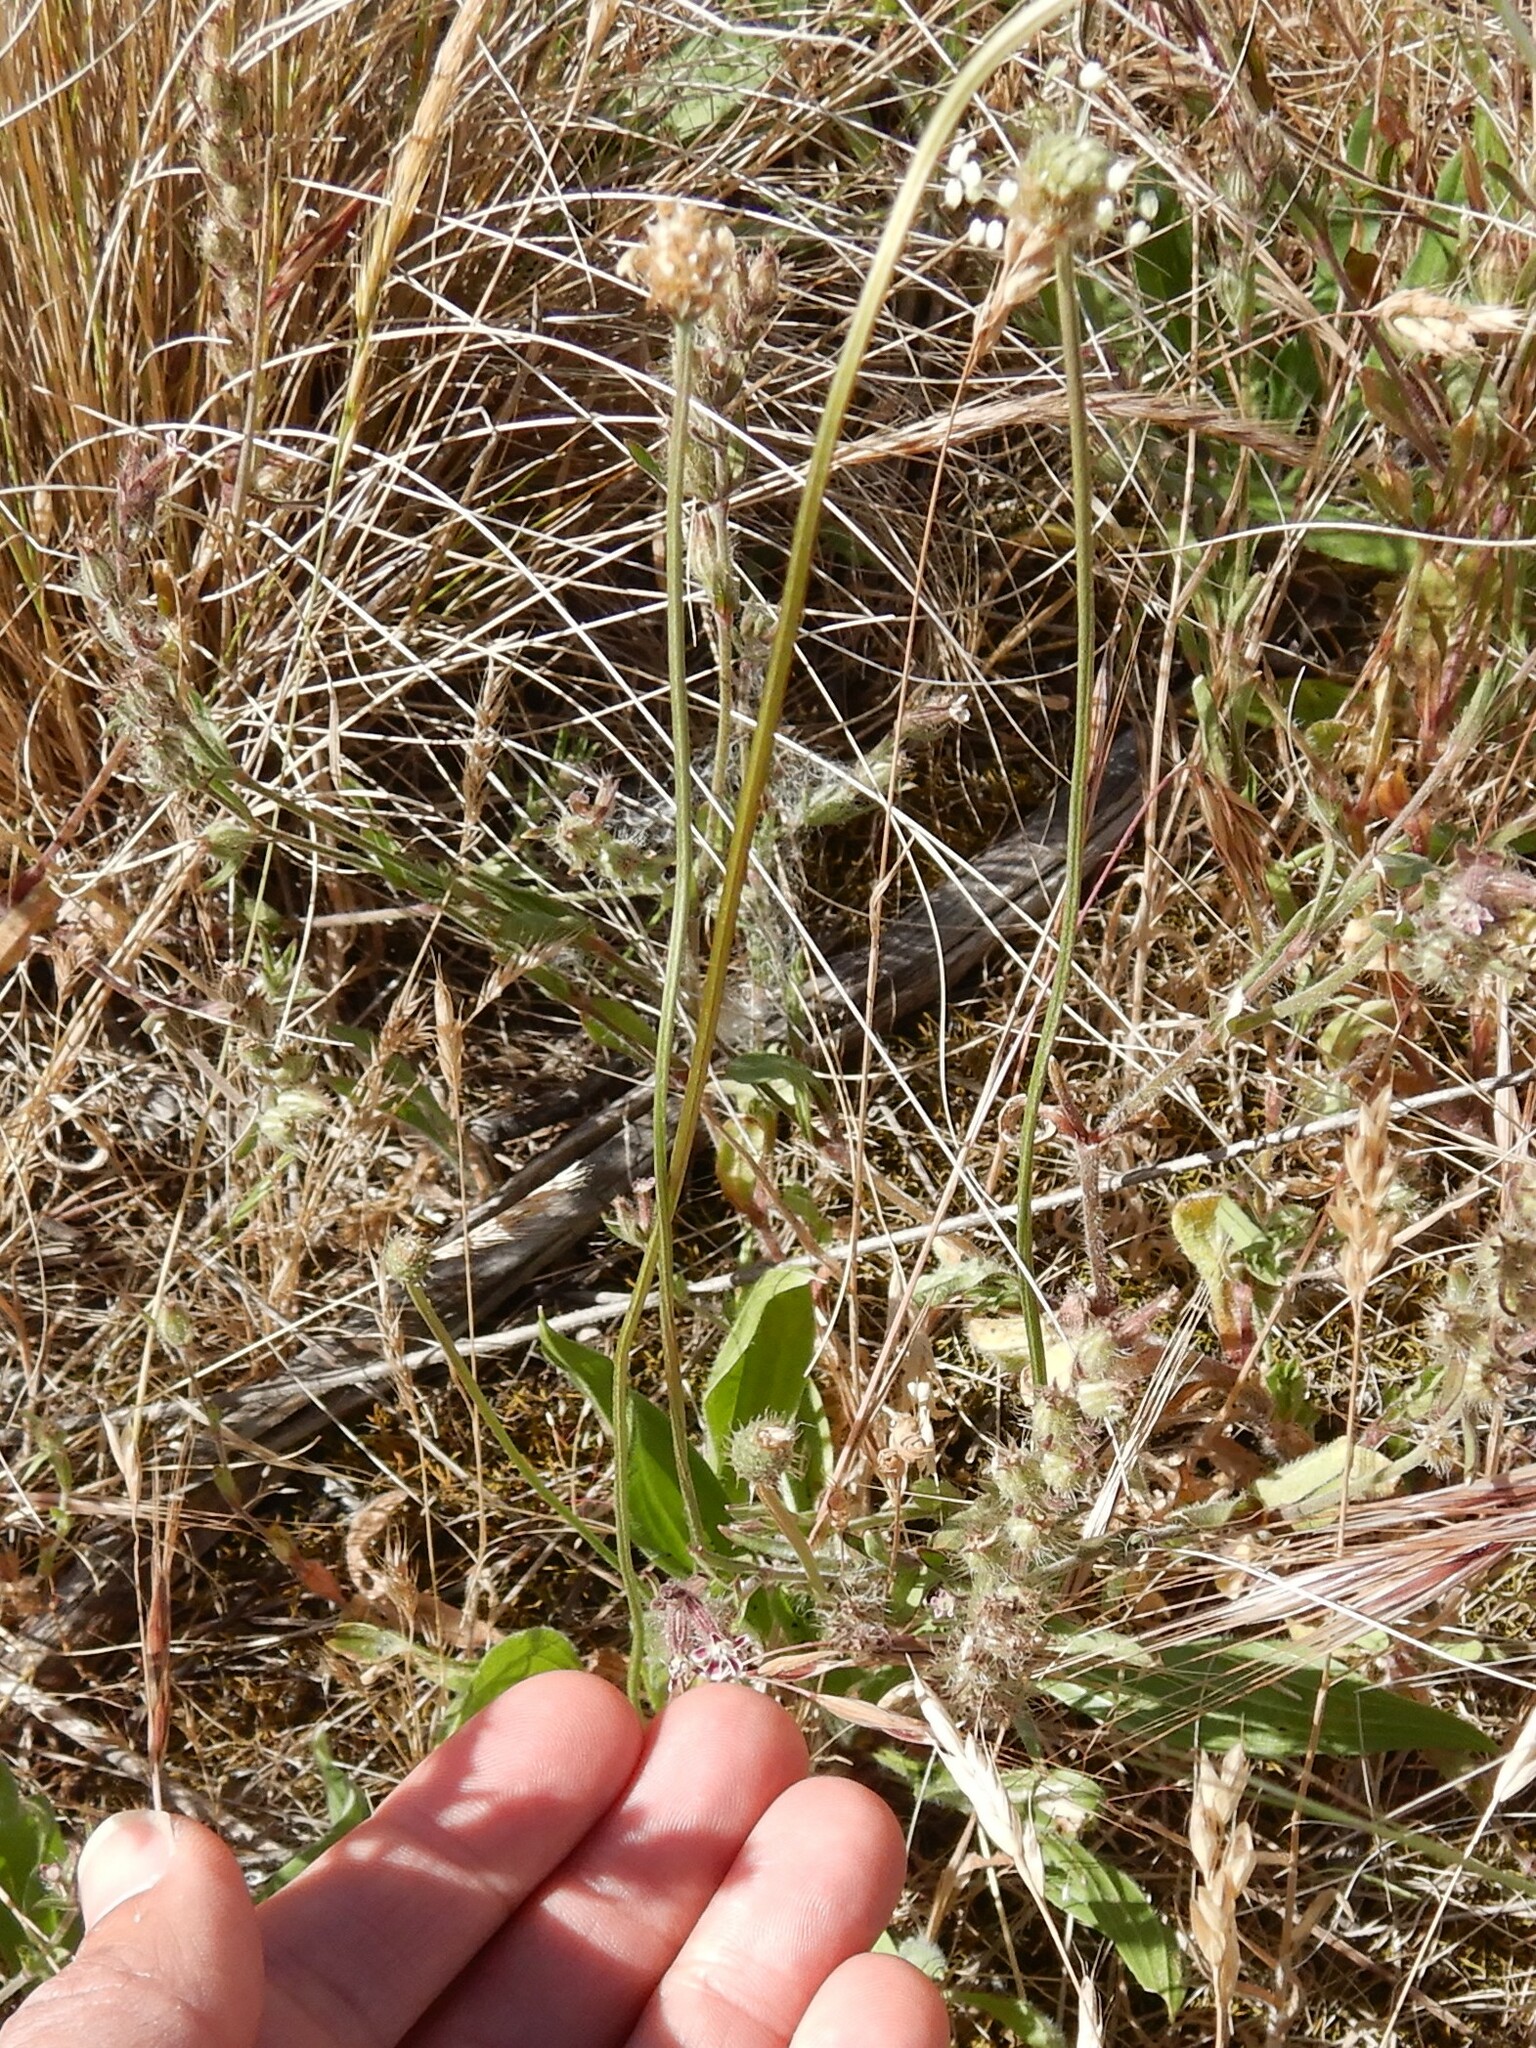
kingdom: Plantae
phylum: Tracheophyta
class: Magnoliopsida
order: Lamiales
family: Plantaginaceae
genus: Plantago
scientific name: Plantago lanceolata
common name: Ribwort plantain
